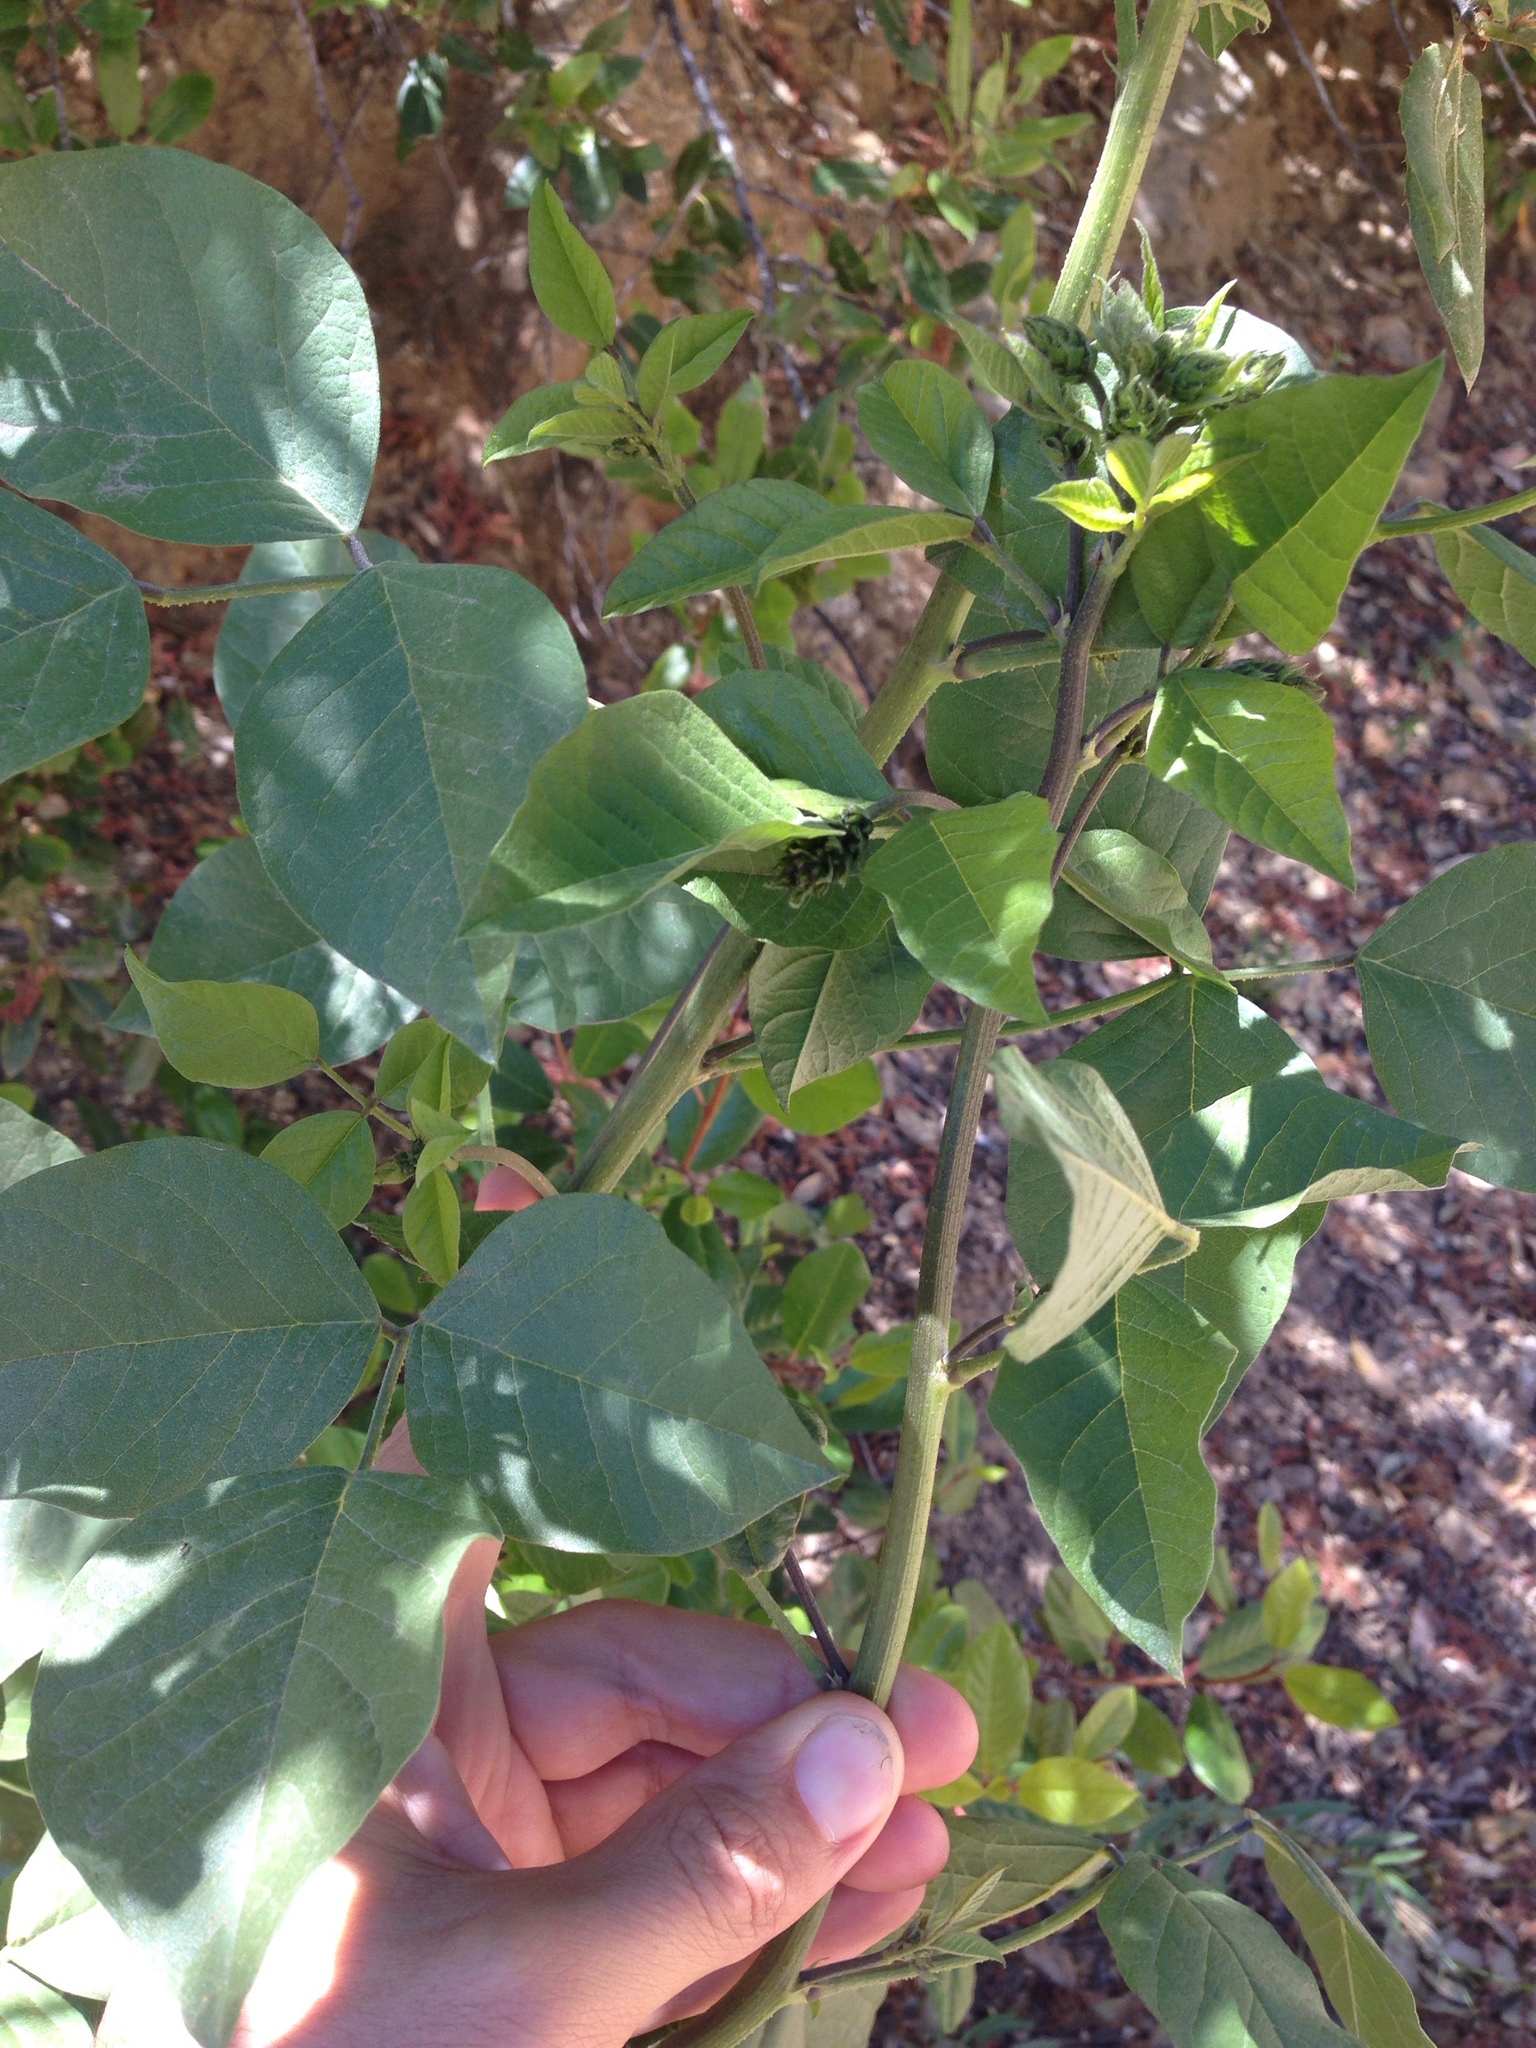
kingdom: Plantae
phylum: Tracheophyta
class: Magnoliopsida
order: Fabales
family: Fabaceae
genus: Hoita
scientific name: Hoita macrostachya
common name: Leatherroot
